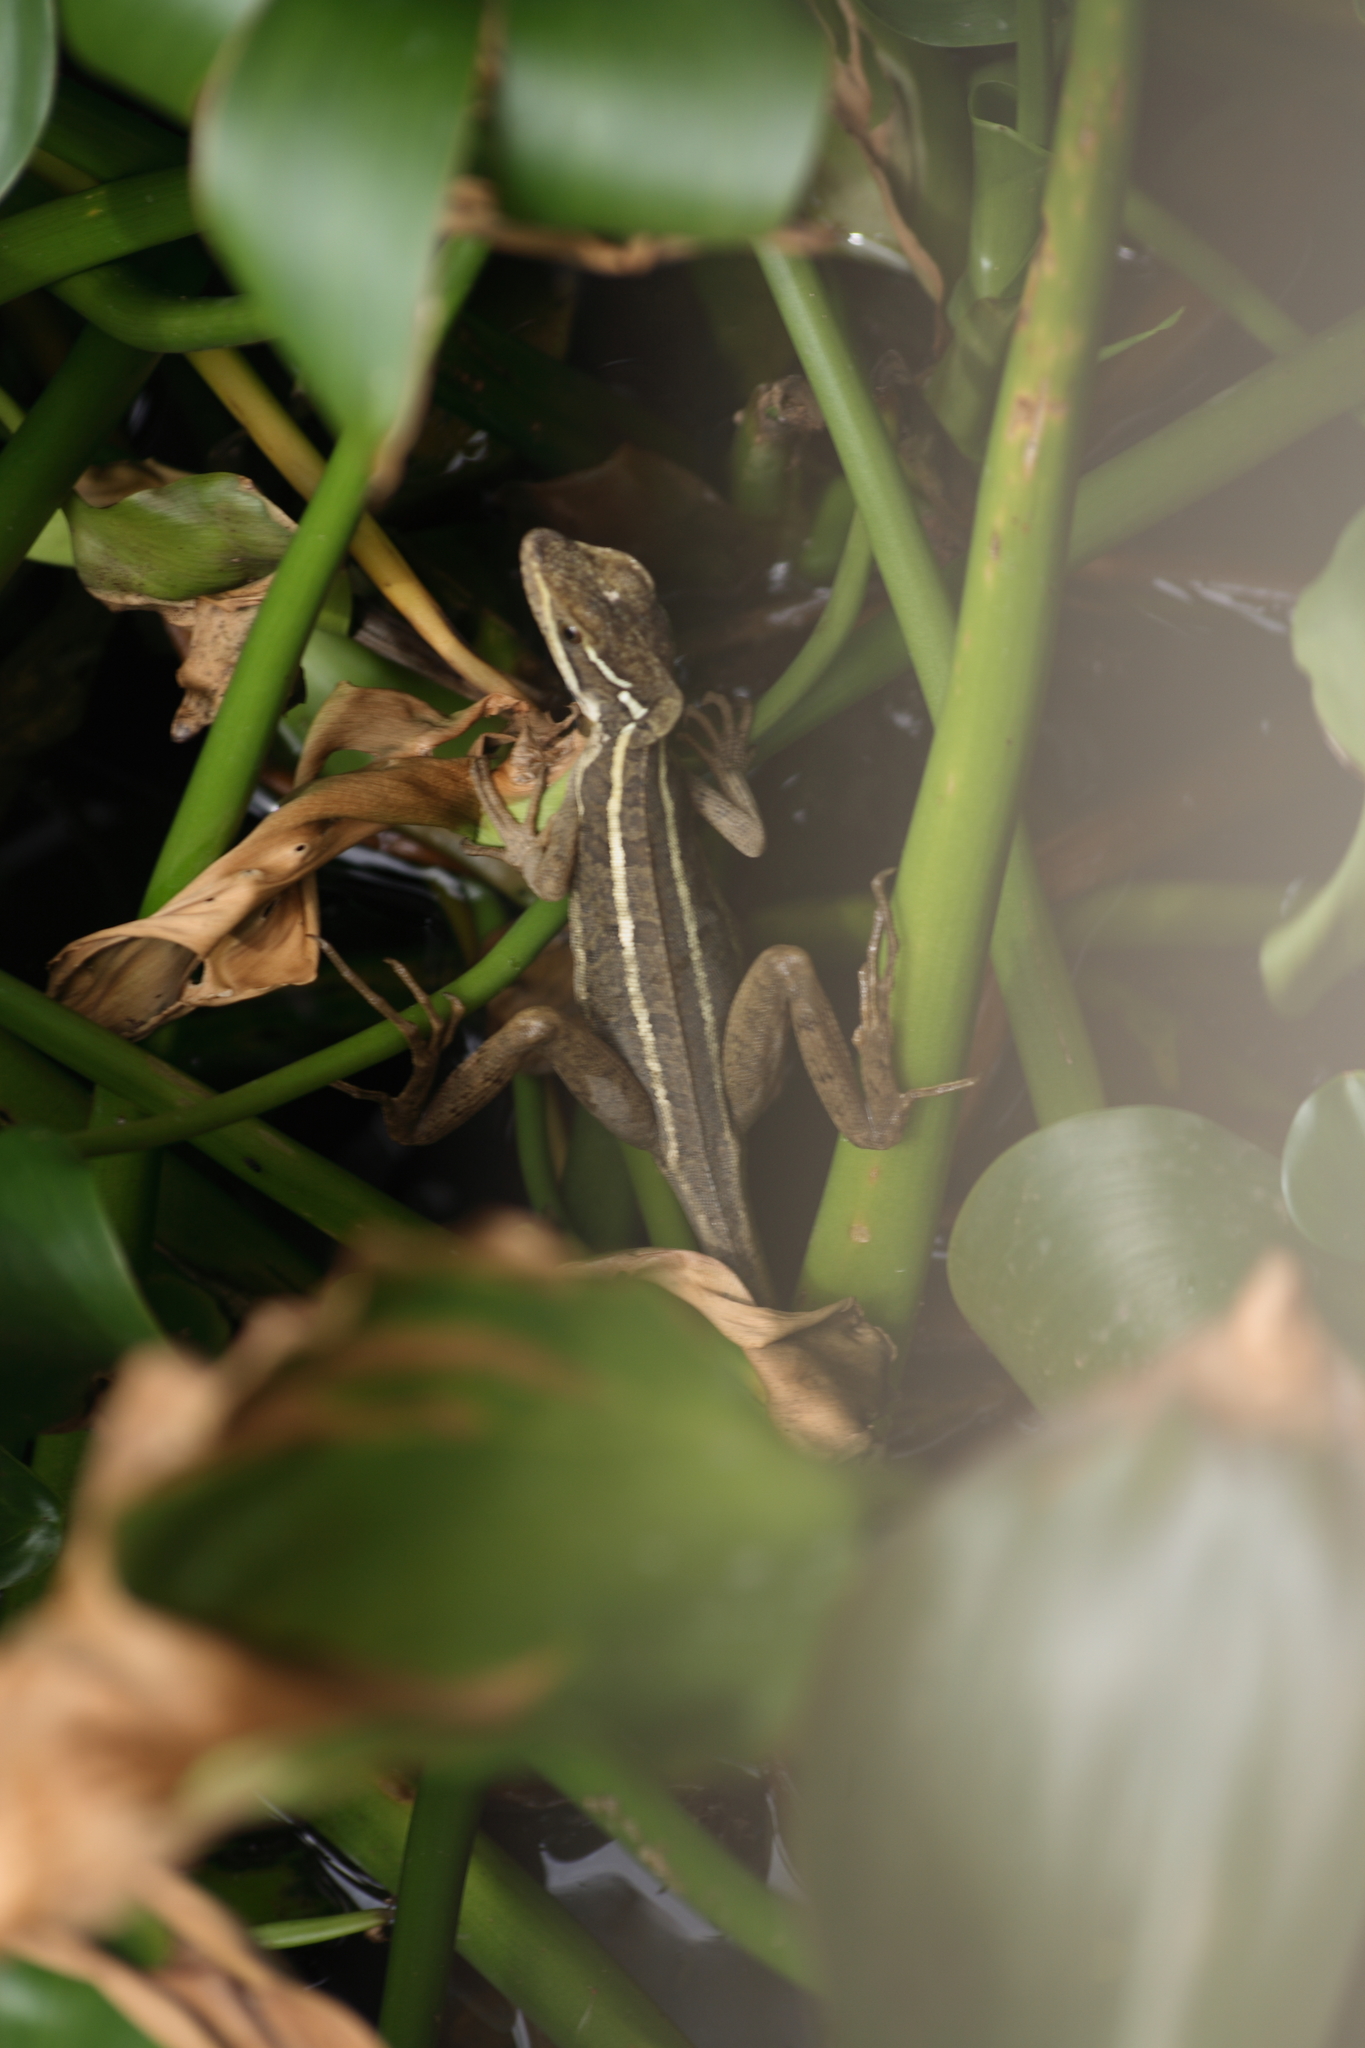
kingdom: Animalia
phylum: Chordata
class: Squamata
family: Corytophanidae
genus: Basiliscus
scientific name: Basiliscus vittatus
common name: Brown basilisk
